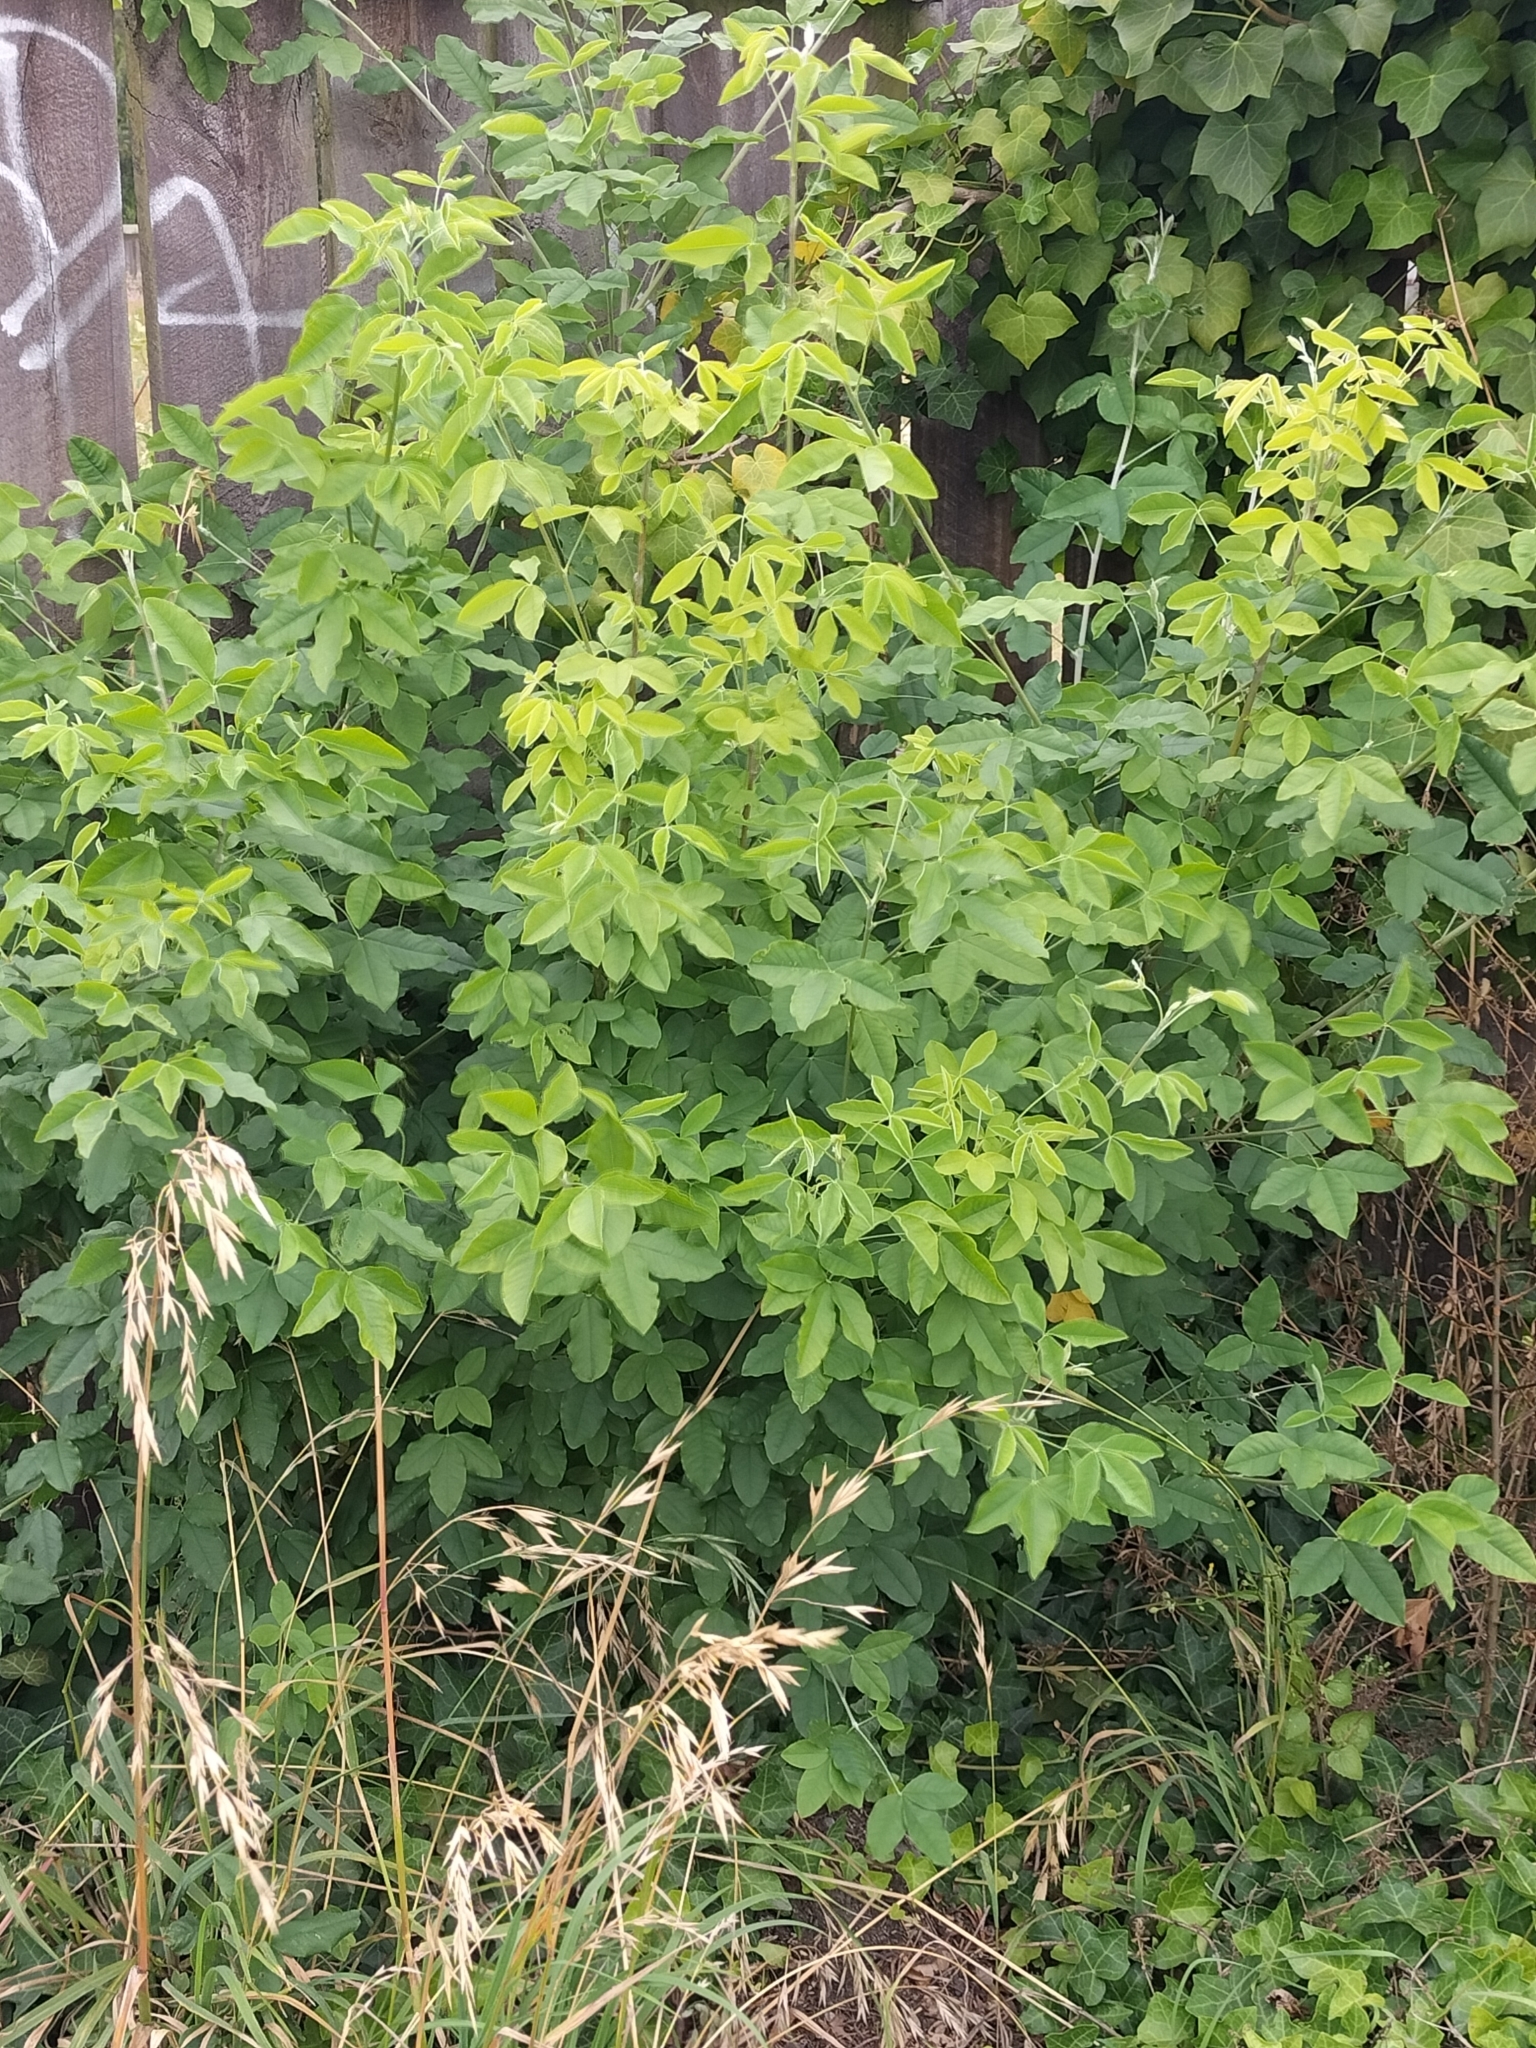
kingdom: Plantae
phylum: Tracheophyta
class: Magnoliopsida
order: Fabales
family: Fabaceae
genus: Laburnum
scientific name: Laburnum anagyroides
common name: Laburnum
